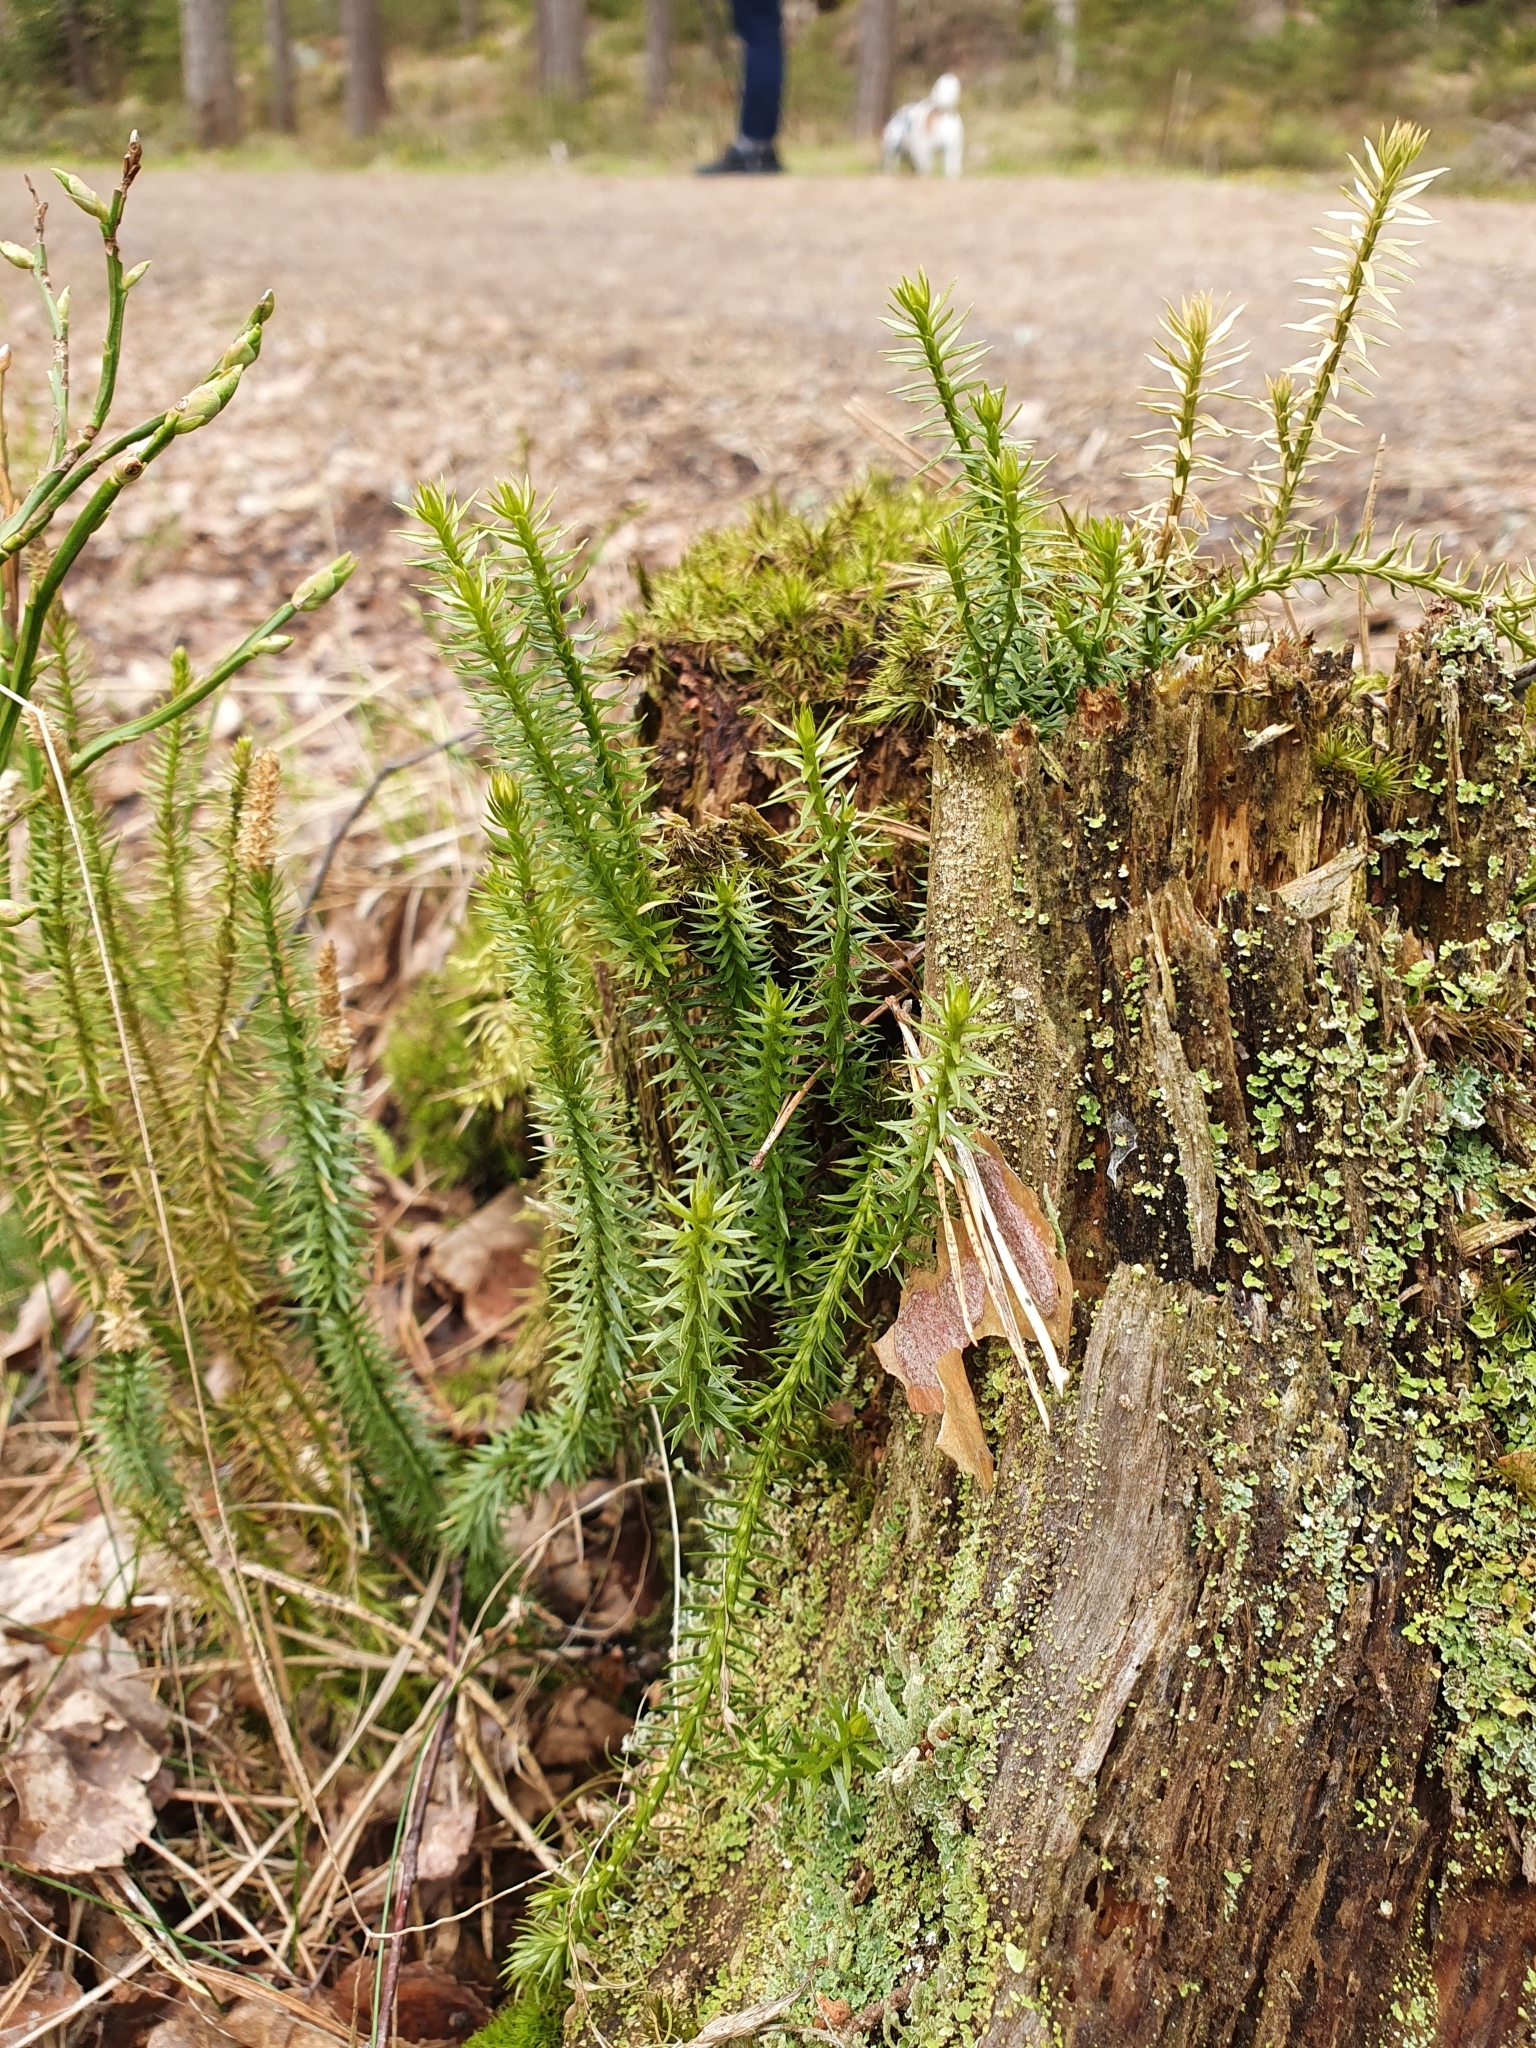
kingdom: Plantae
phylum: Tracheophyta
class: Lycopodiopsida
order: Lycopodiales
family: Lycopodiaceae
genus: Spinulum
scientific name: Spinulum annotinum
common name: Interrupted club-moss
